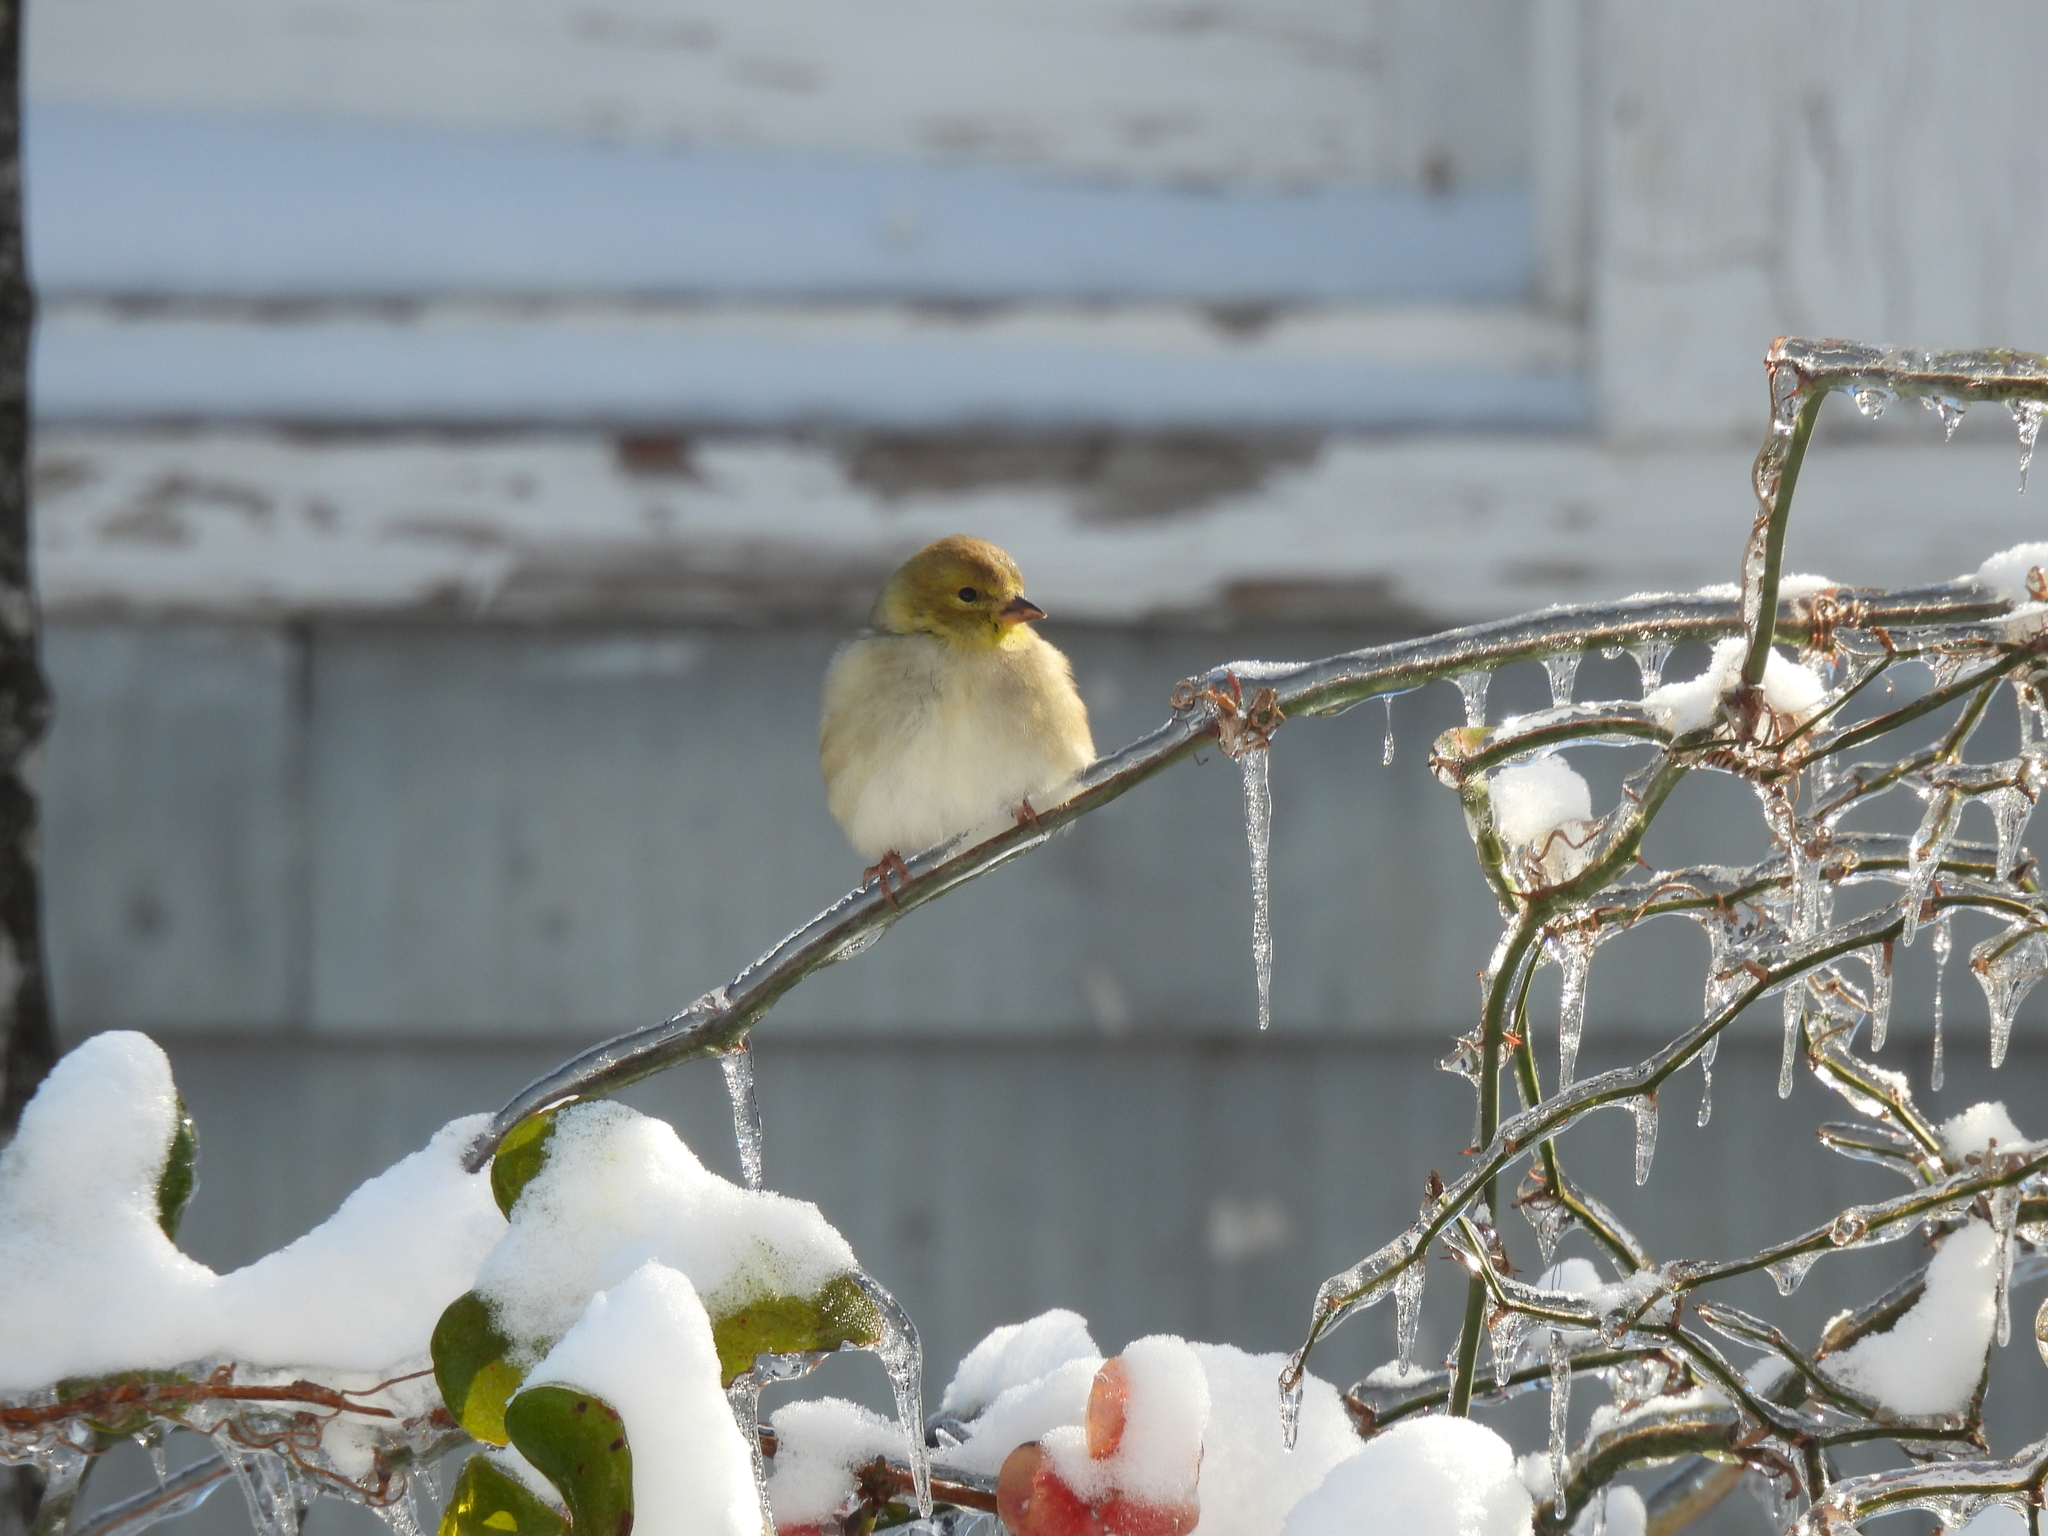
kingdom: Animalia
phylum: Chordata
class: Aves
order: Passeriformes
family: Fringillidae
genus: Spinus
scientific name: Spinus tristis
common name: American goldfinch
